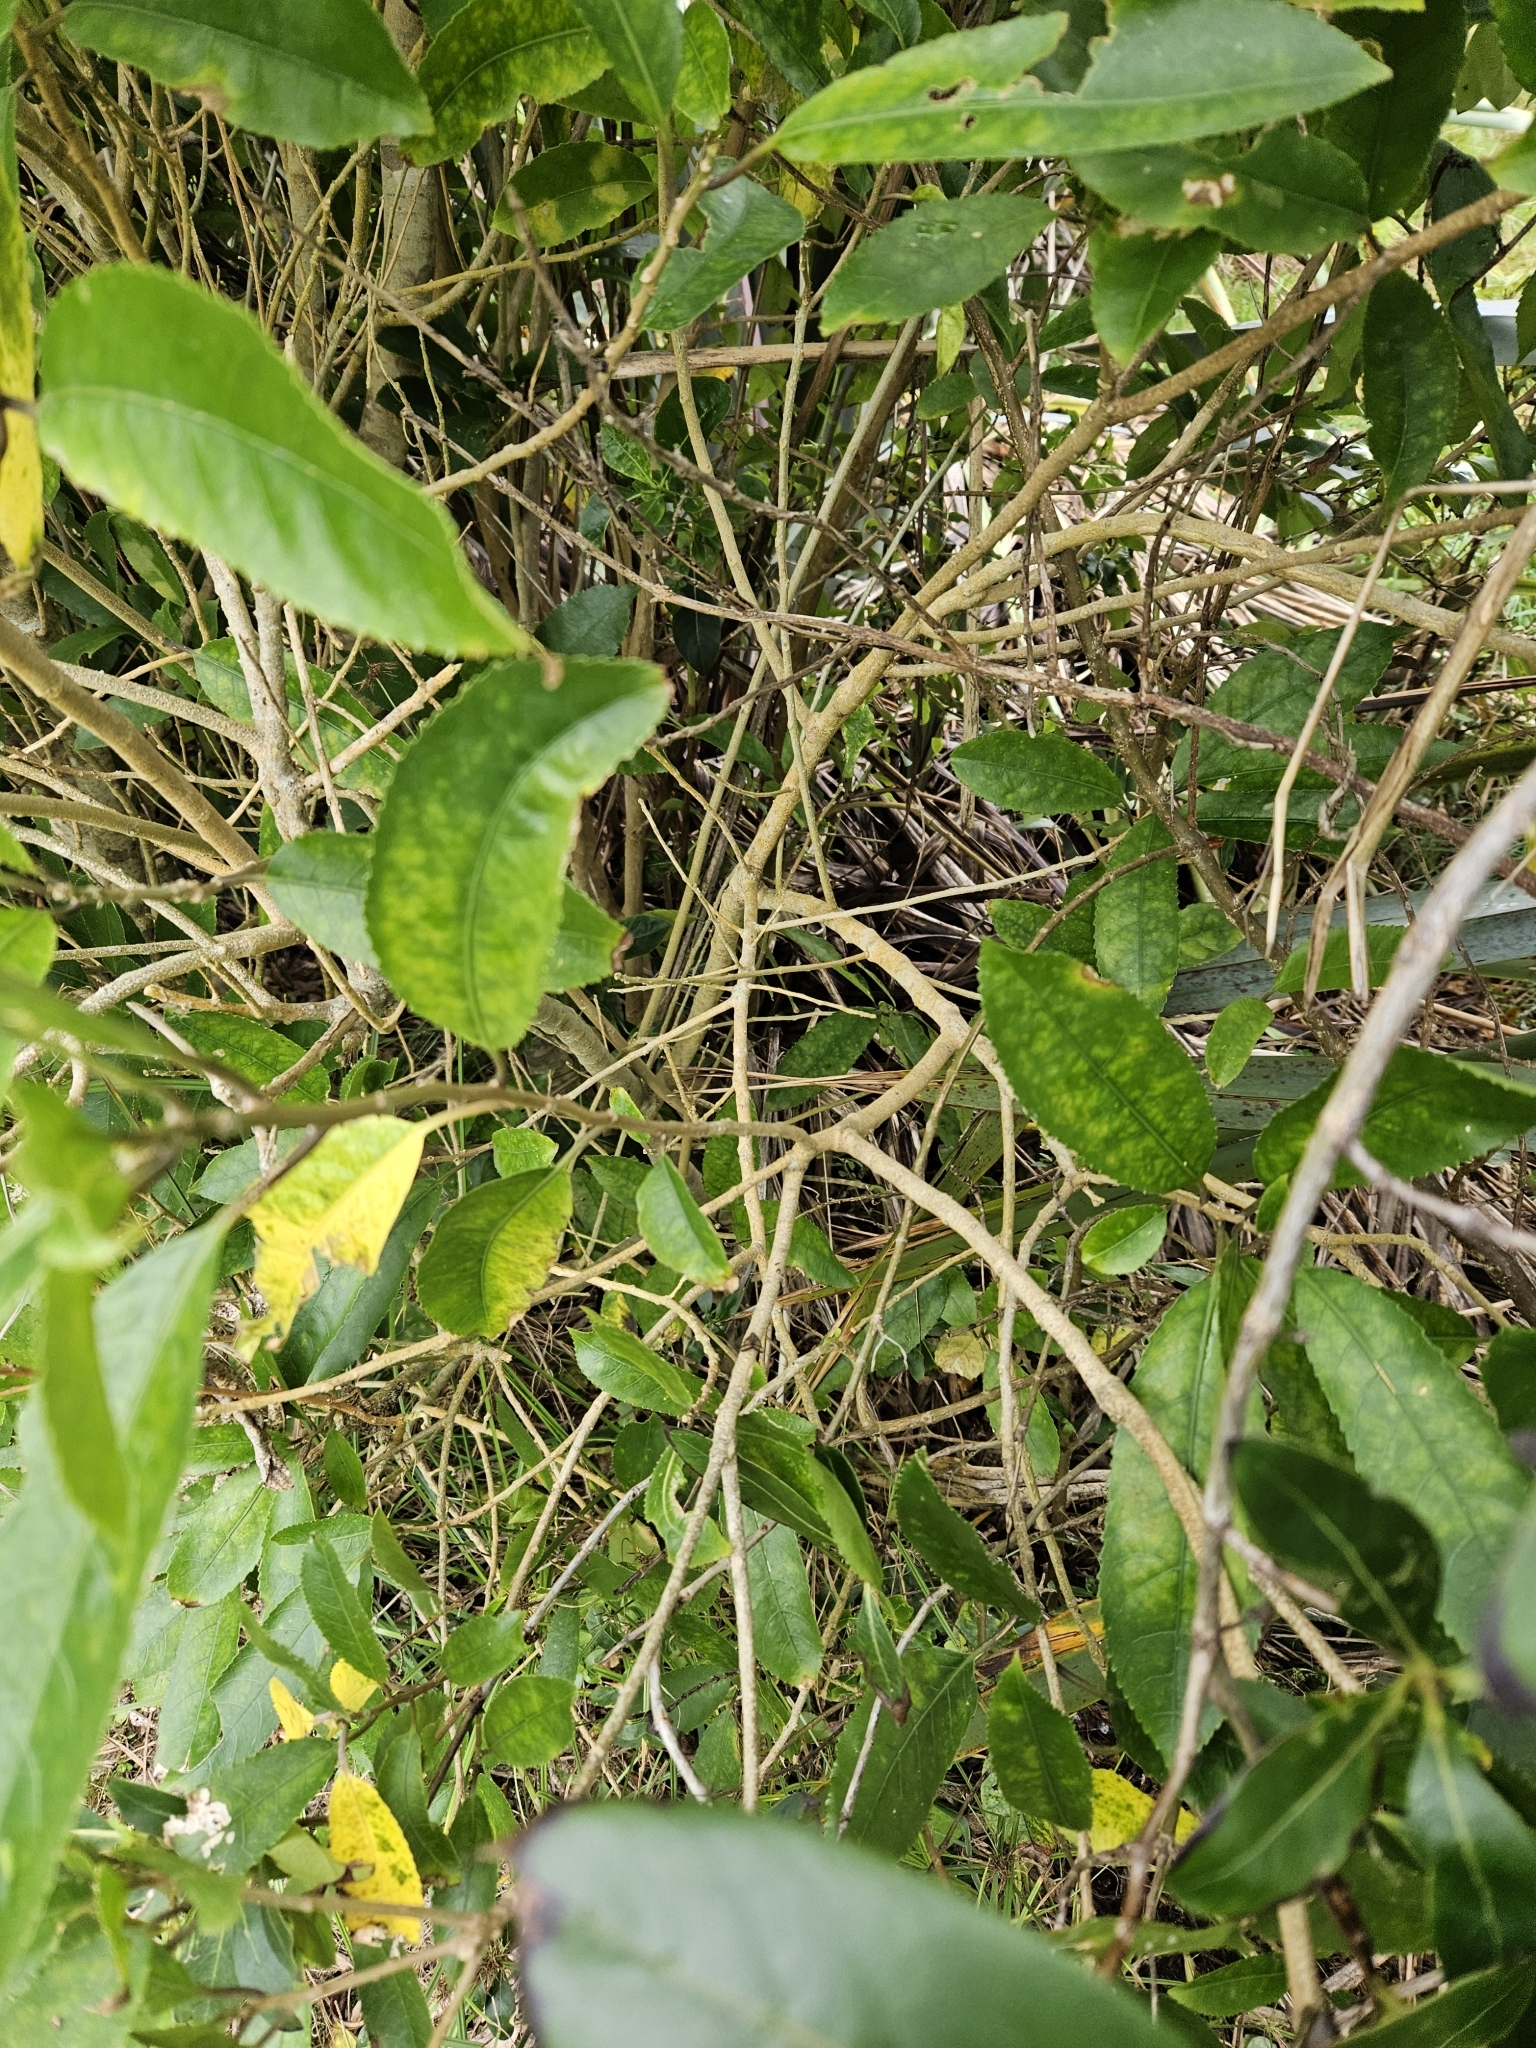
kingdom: Plantae
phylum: Tracheophyta
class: Magnoliopsida
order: Malpighiales
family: Violaceae
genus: Melicytus
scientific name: Melicytus ramiflorus
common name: Mahoe
